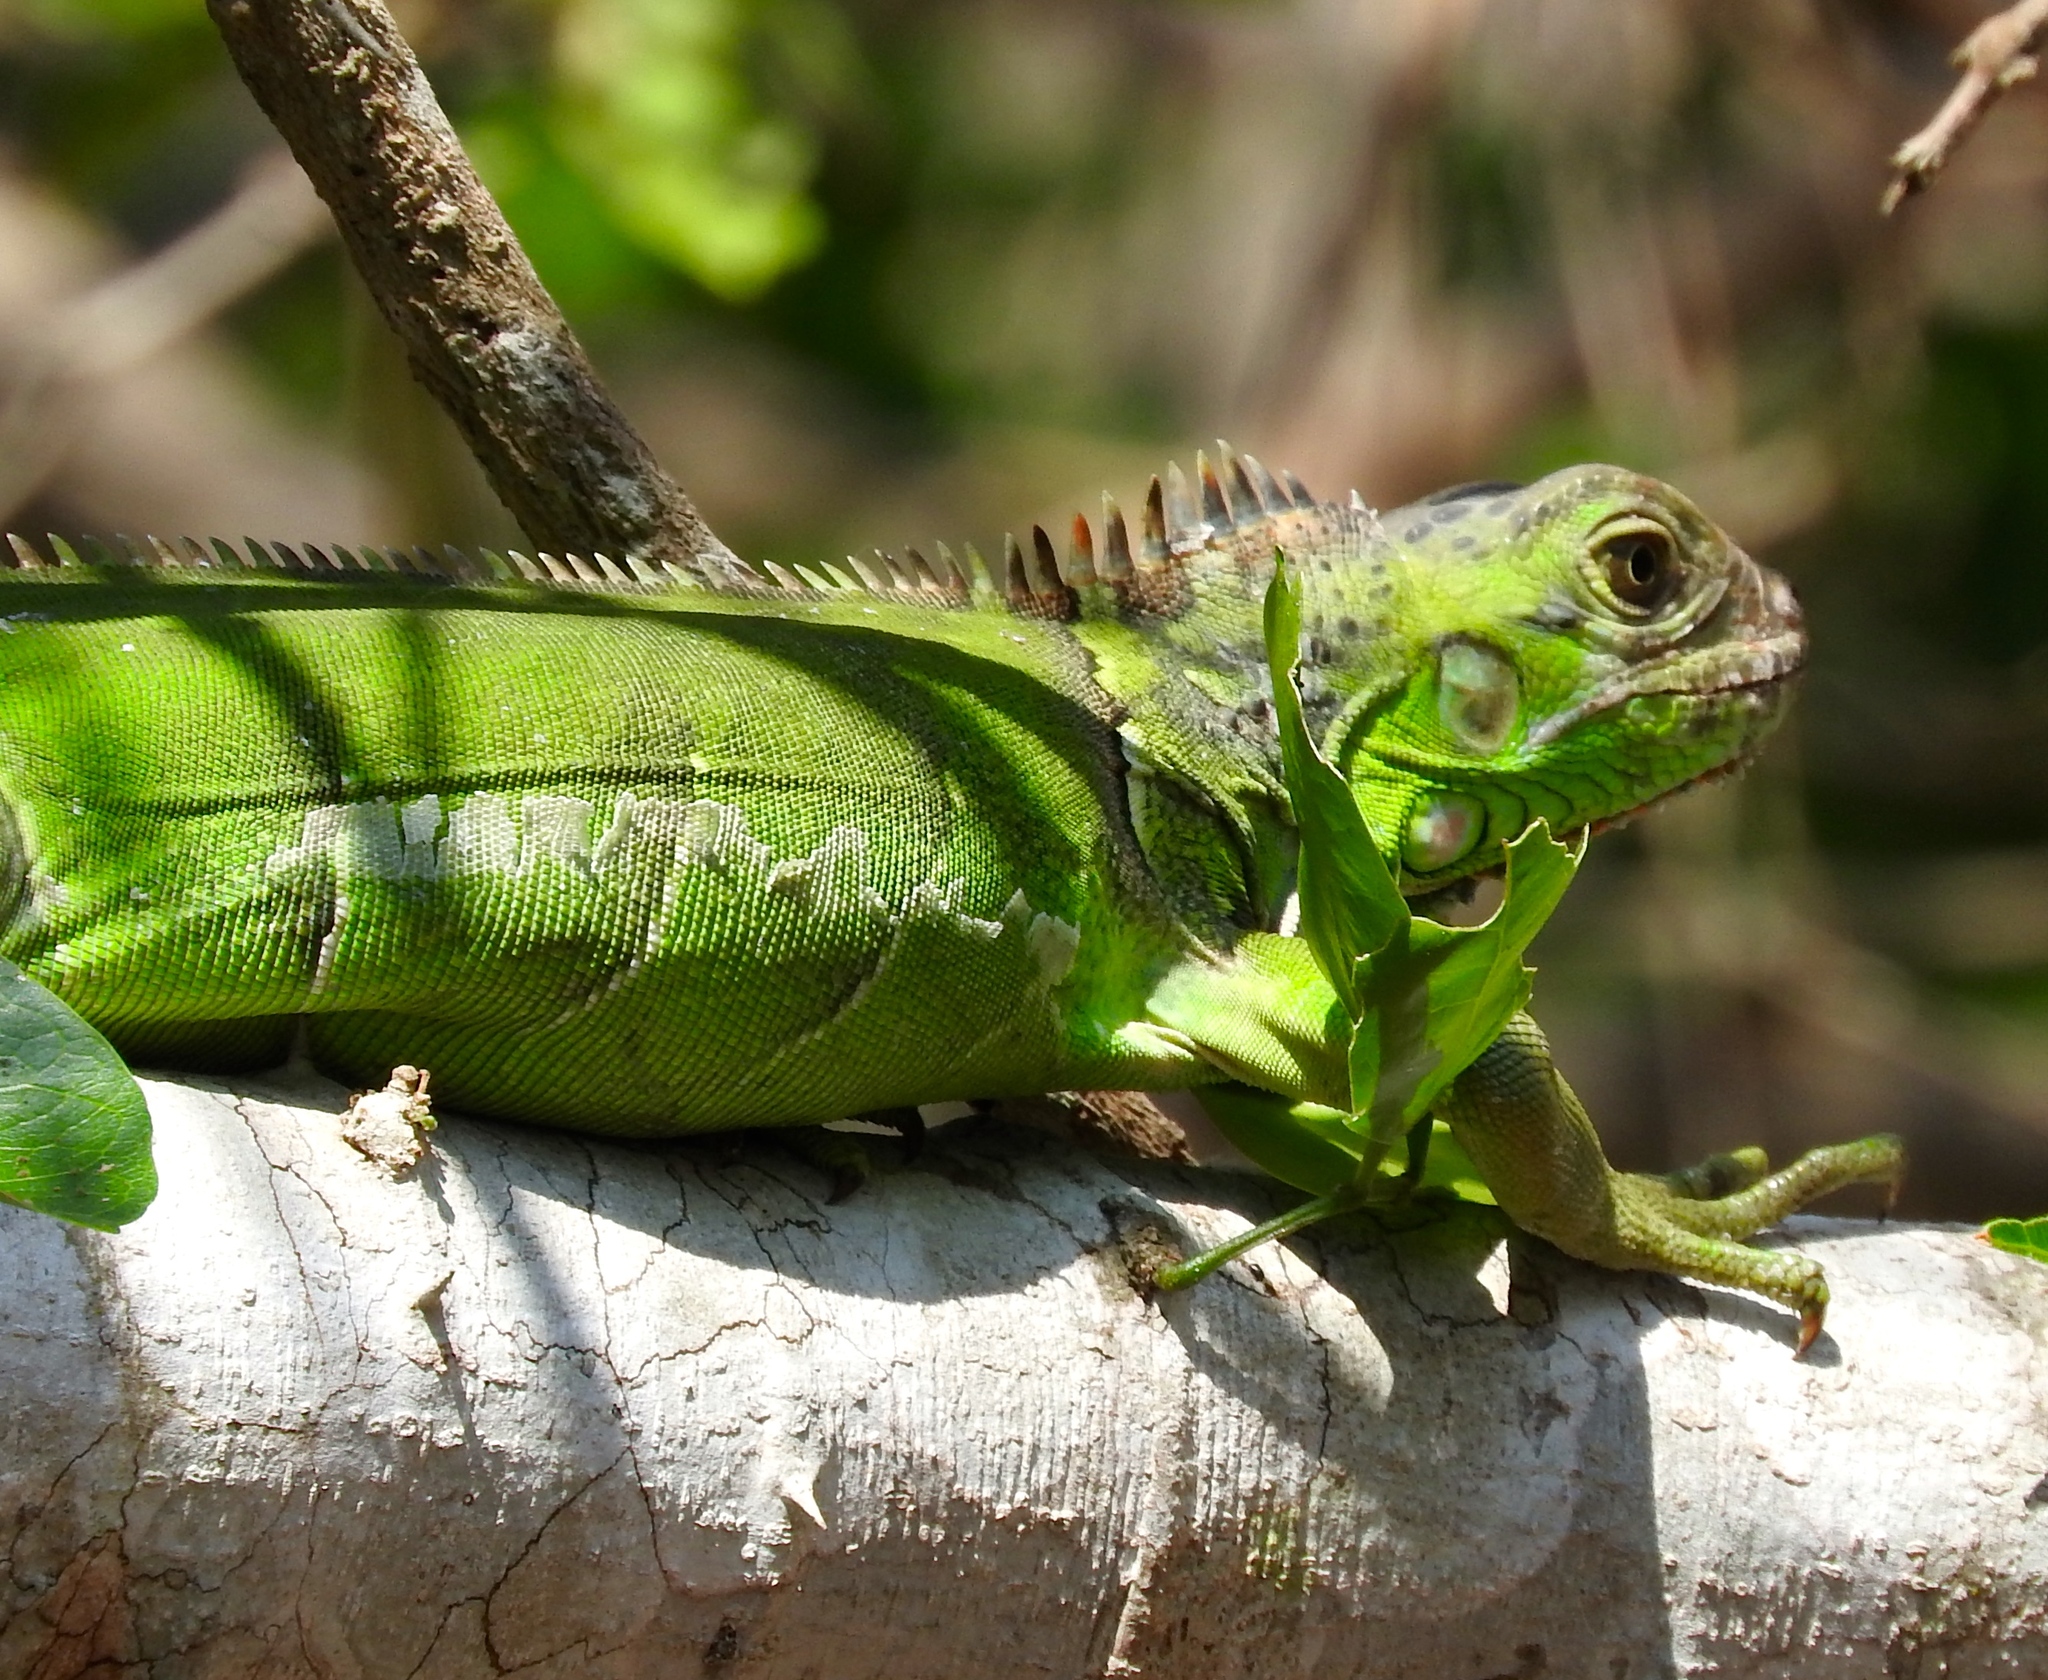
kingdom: Animalia
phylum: Chordata
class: Squamata
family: Iguanidae
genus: Iguana
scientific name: Iguana iguana
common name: Green iguana
